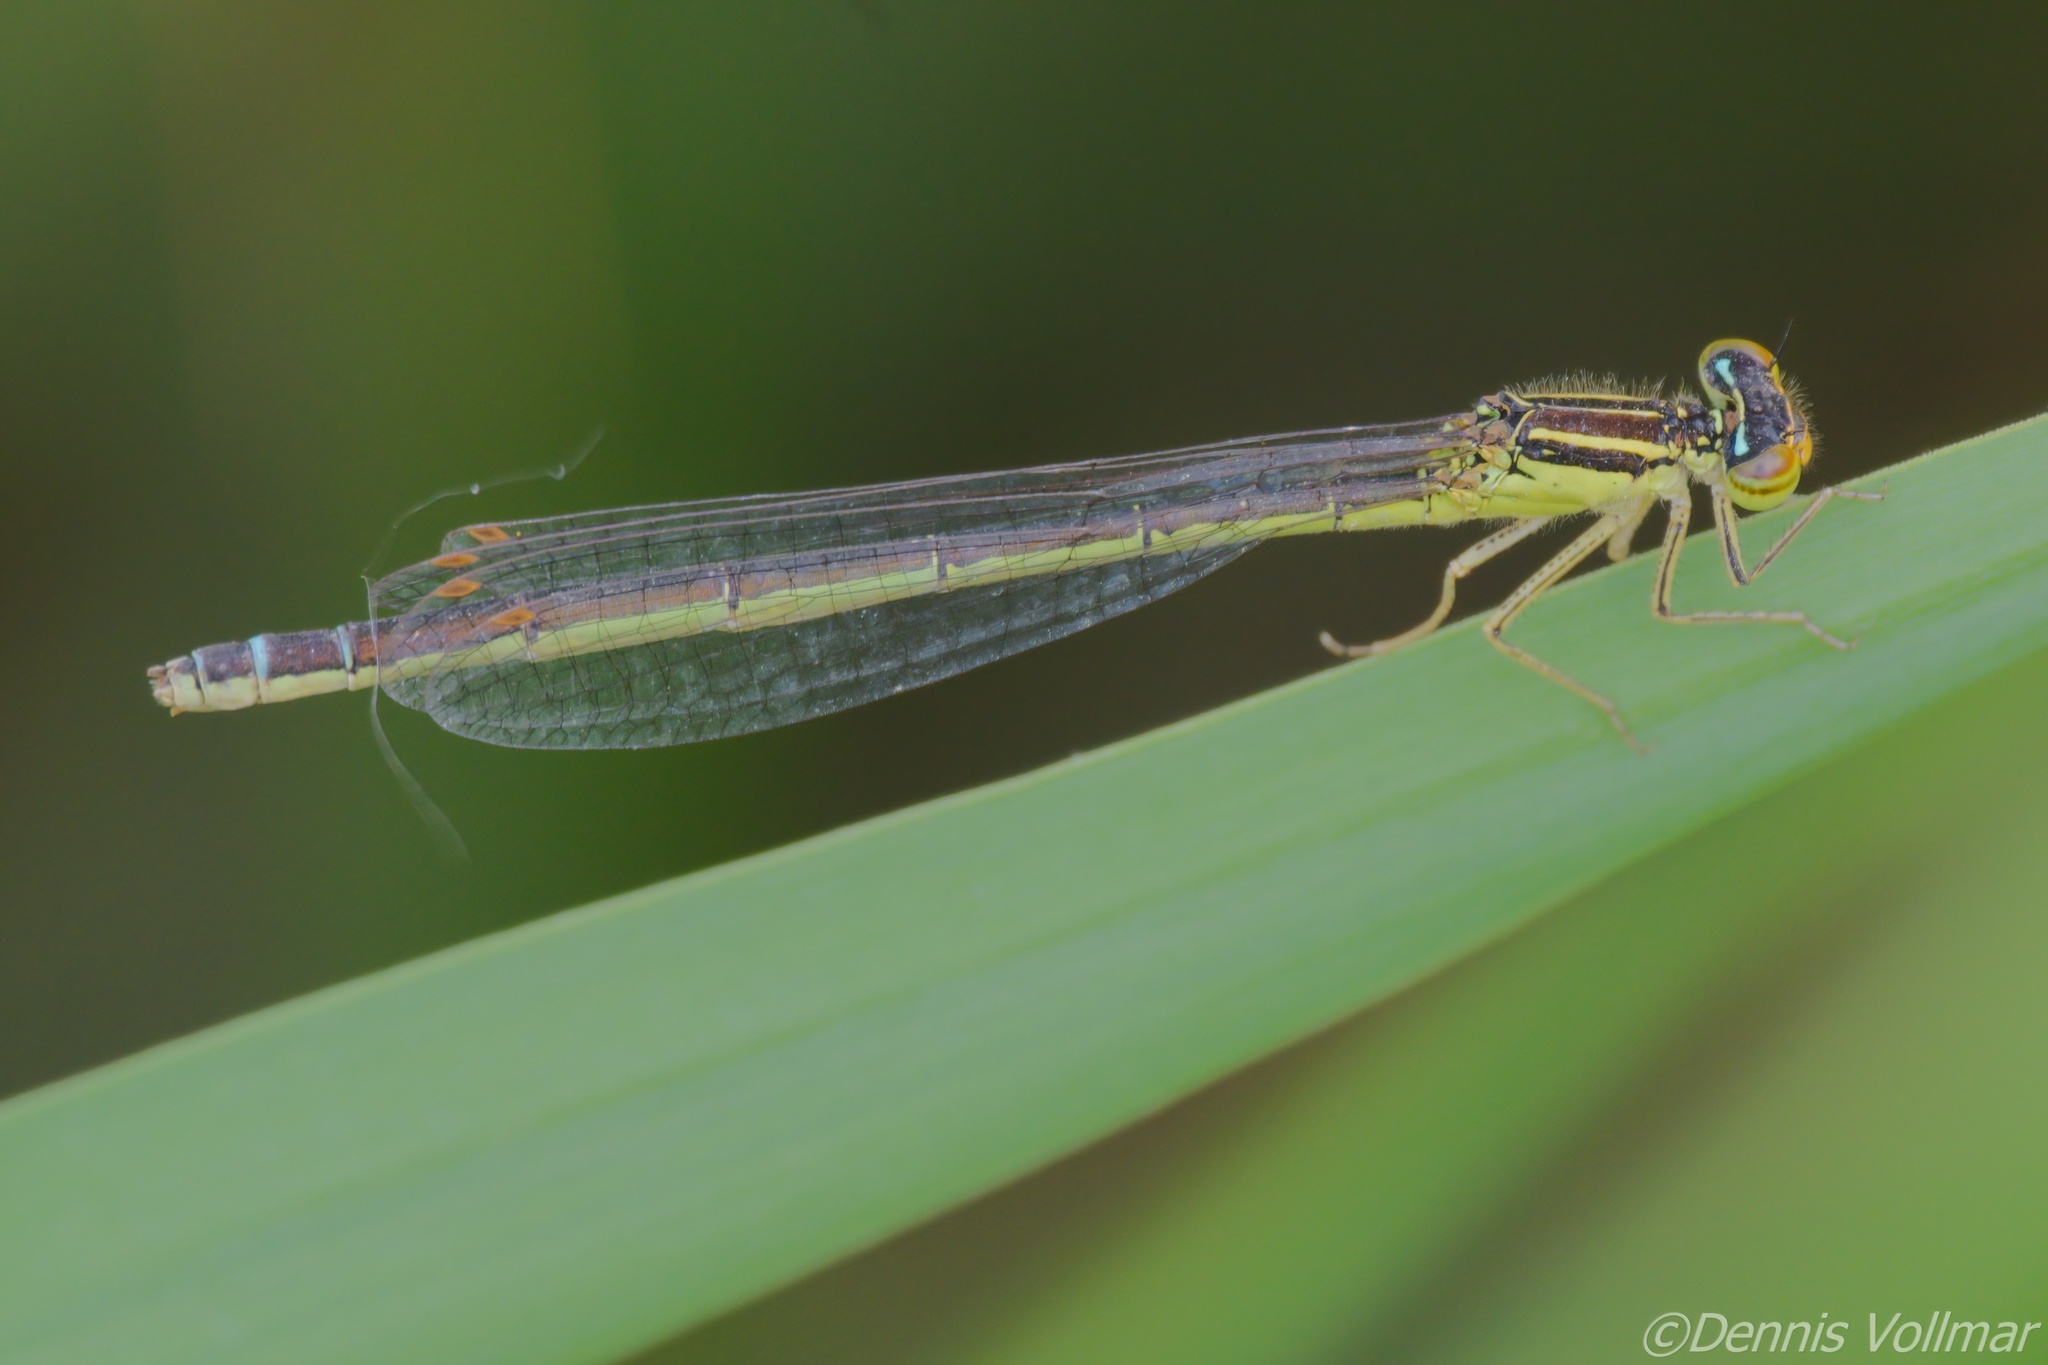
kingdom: Animalia
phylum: Arthropoda
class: Insecta
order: Odonata
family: Coenagrionidae
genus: Enallagma
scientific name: Enallagma antennatum
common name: Rainbow bluet
